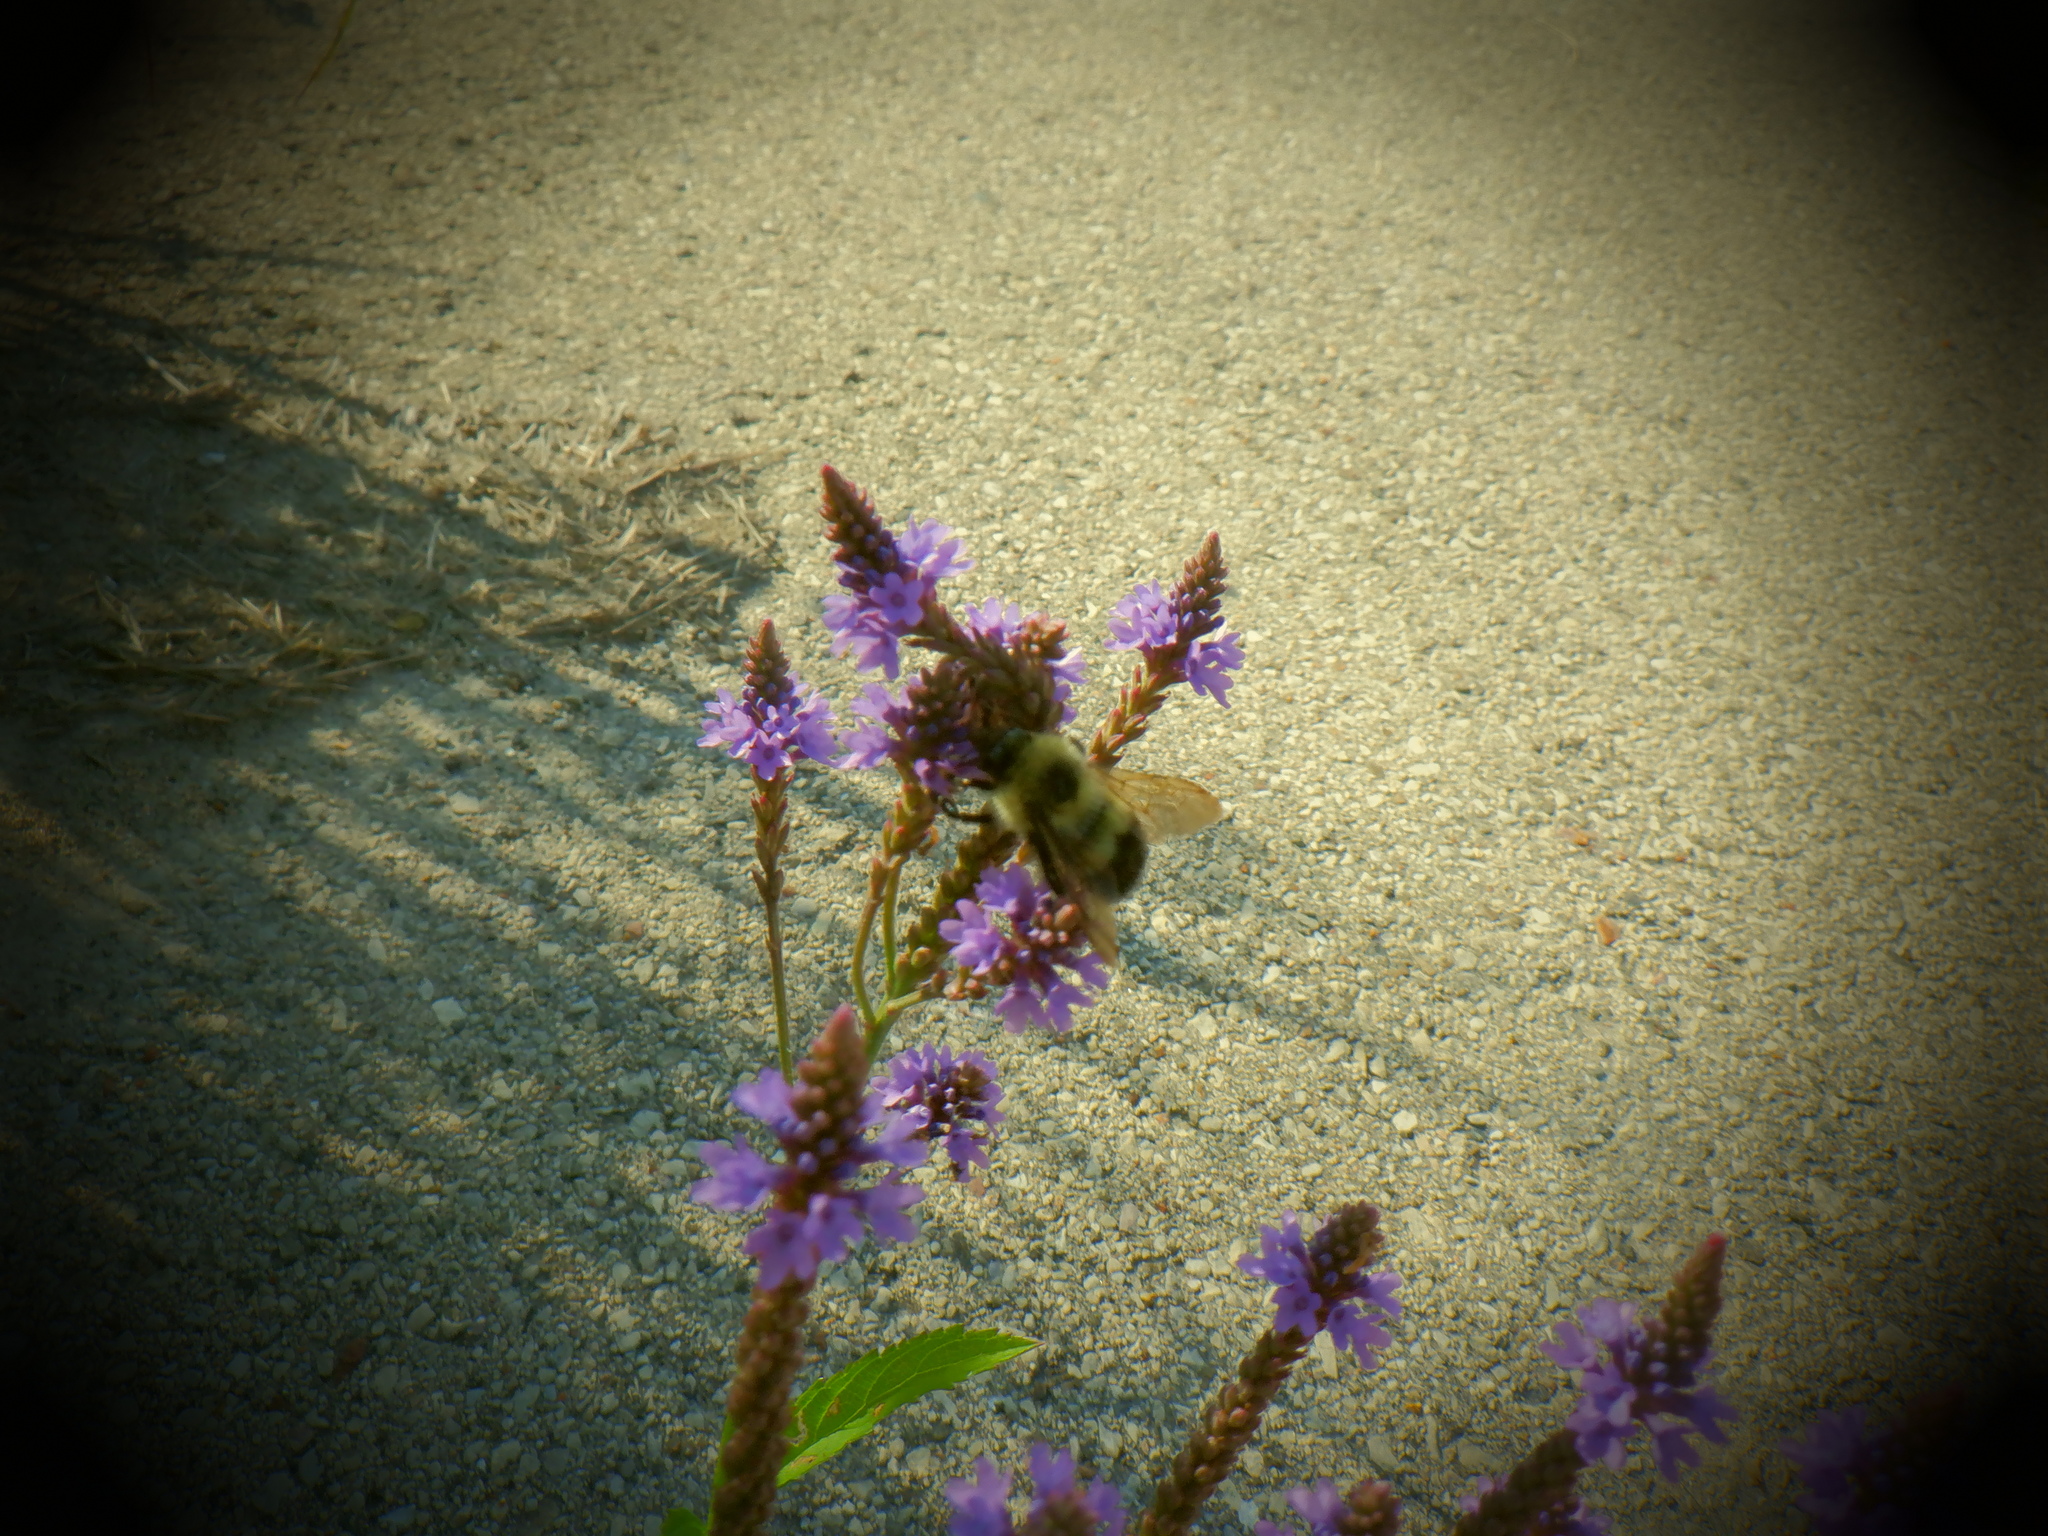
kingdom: Animalia
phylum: Arthropoda
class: Insecta
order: Hymenoptera
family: Apidae
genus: Bombus
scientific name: Bombus bimaculatus
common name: Two-spotted bumble bee
